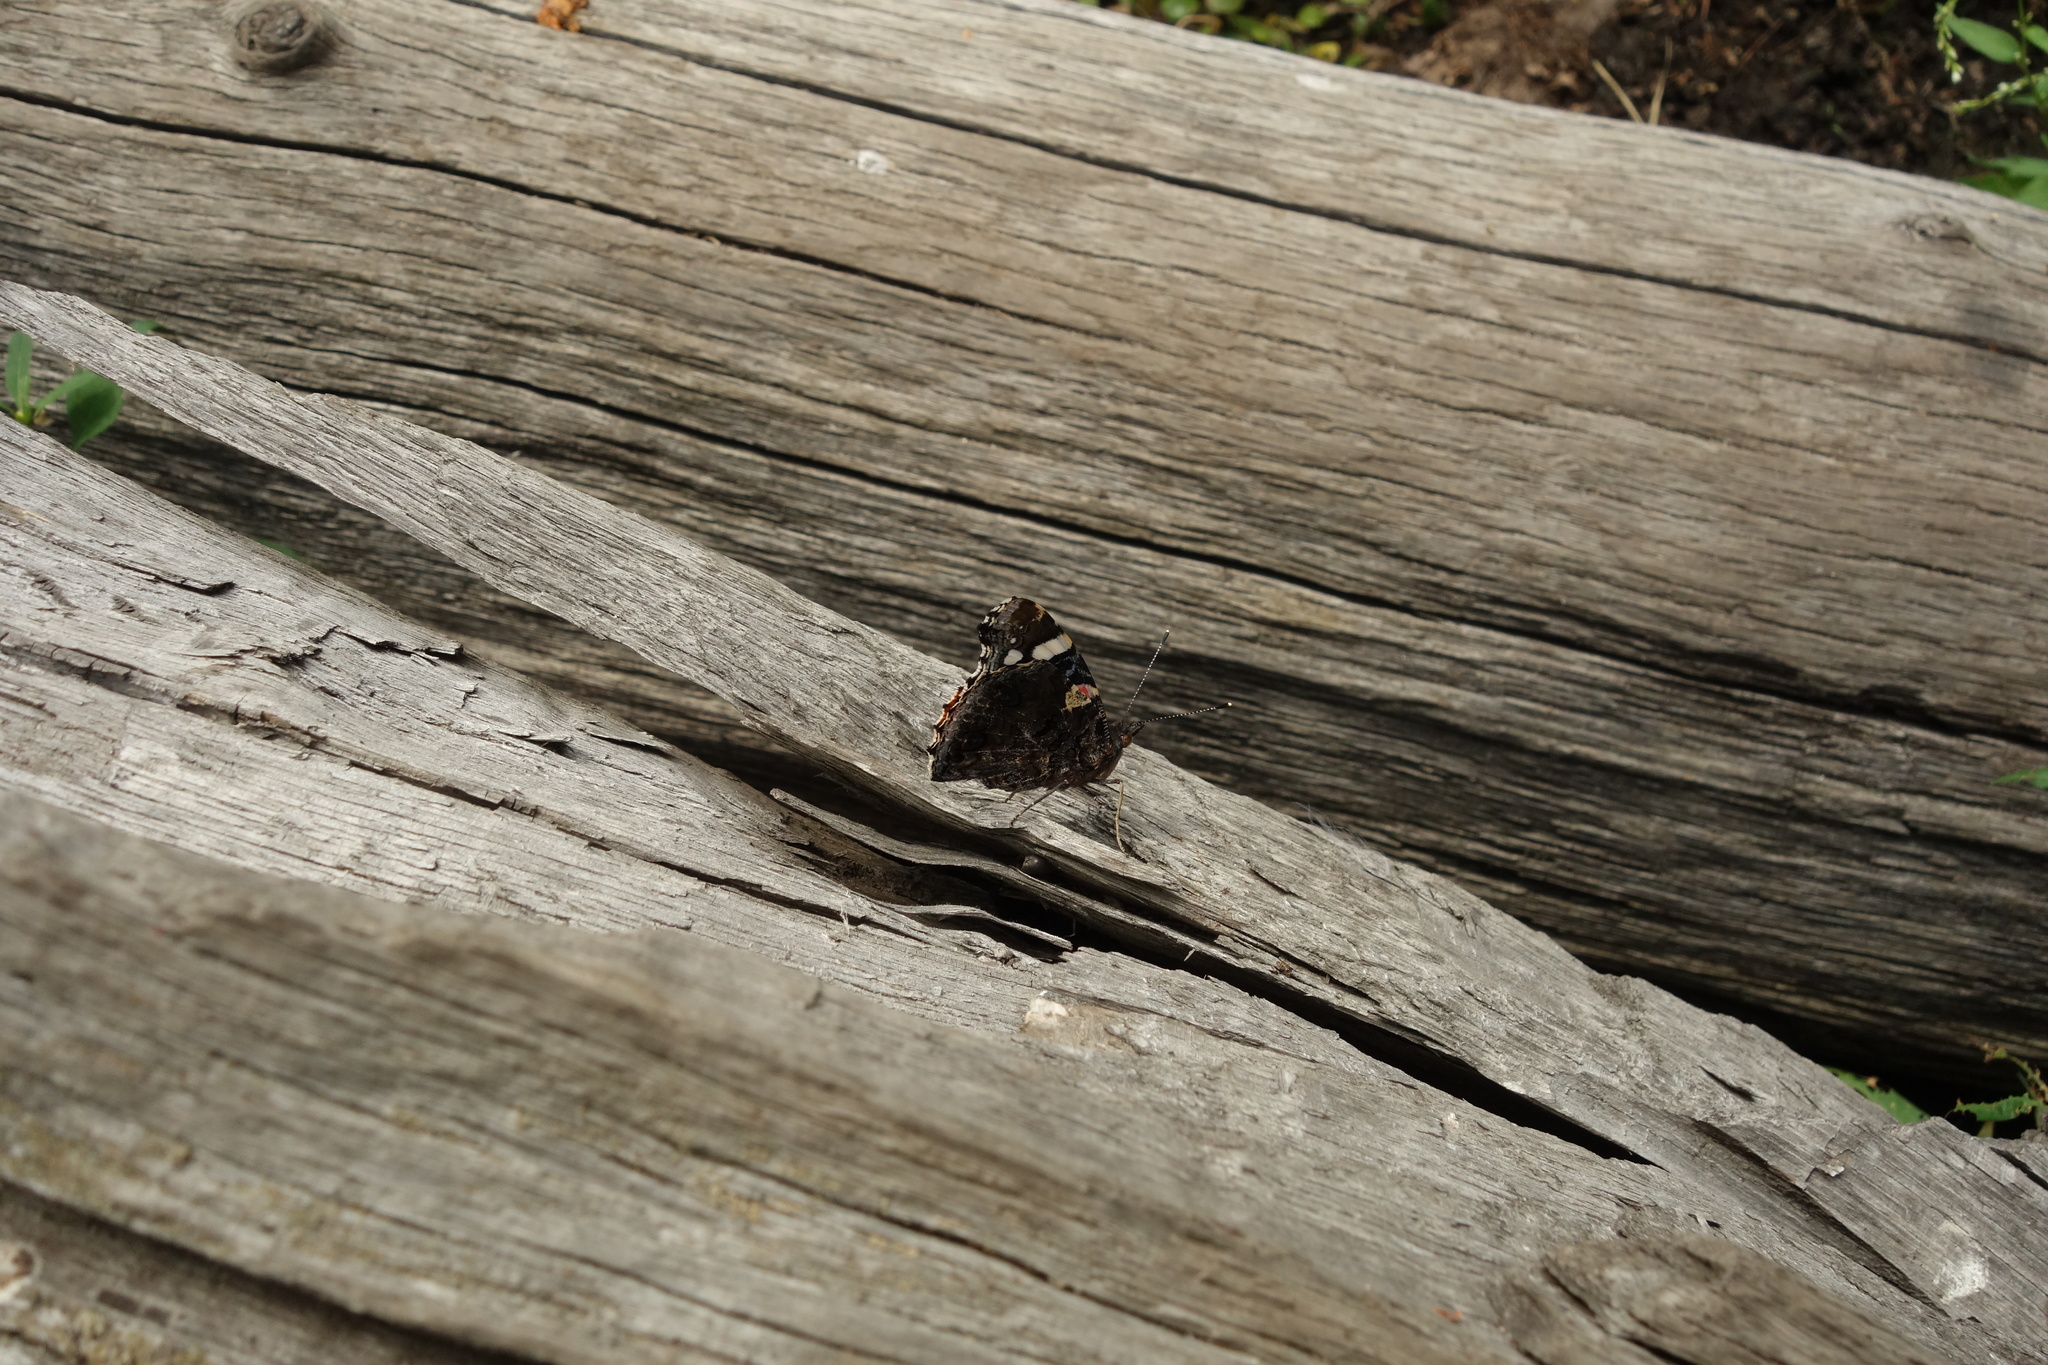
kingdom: Animalia
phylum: Arthropoda
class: Insecta
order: Lepidoptera
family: Nymphalidae
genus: Vanessa
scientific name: Vanessa atalanta
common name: Red admiral
